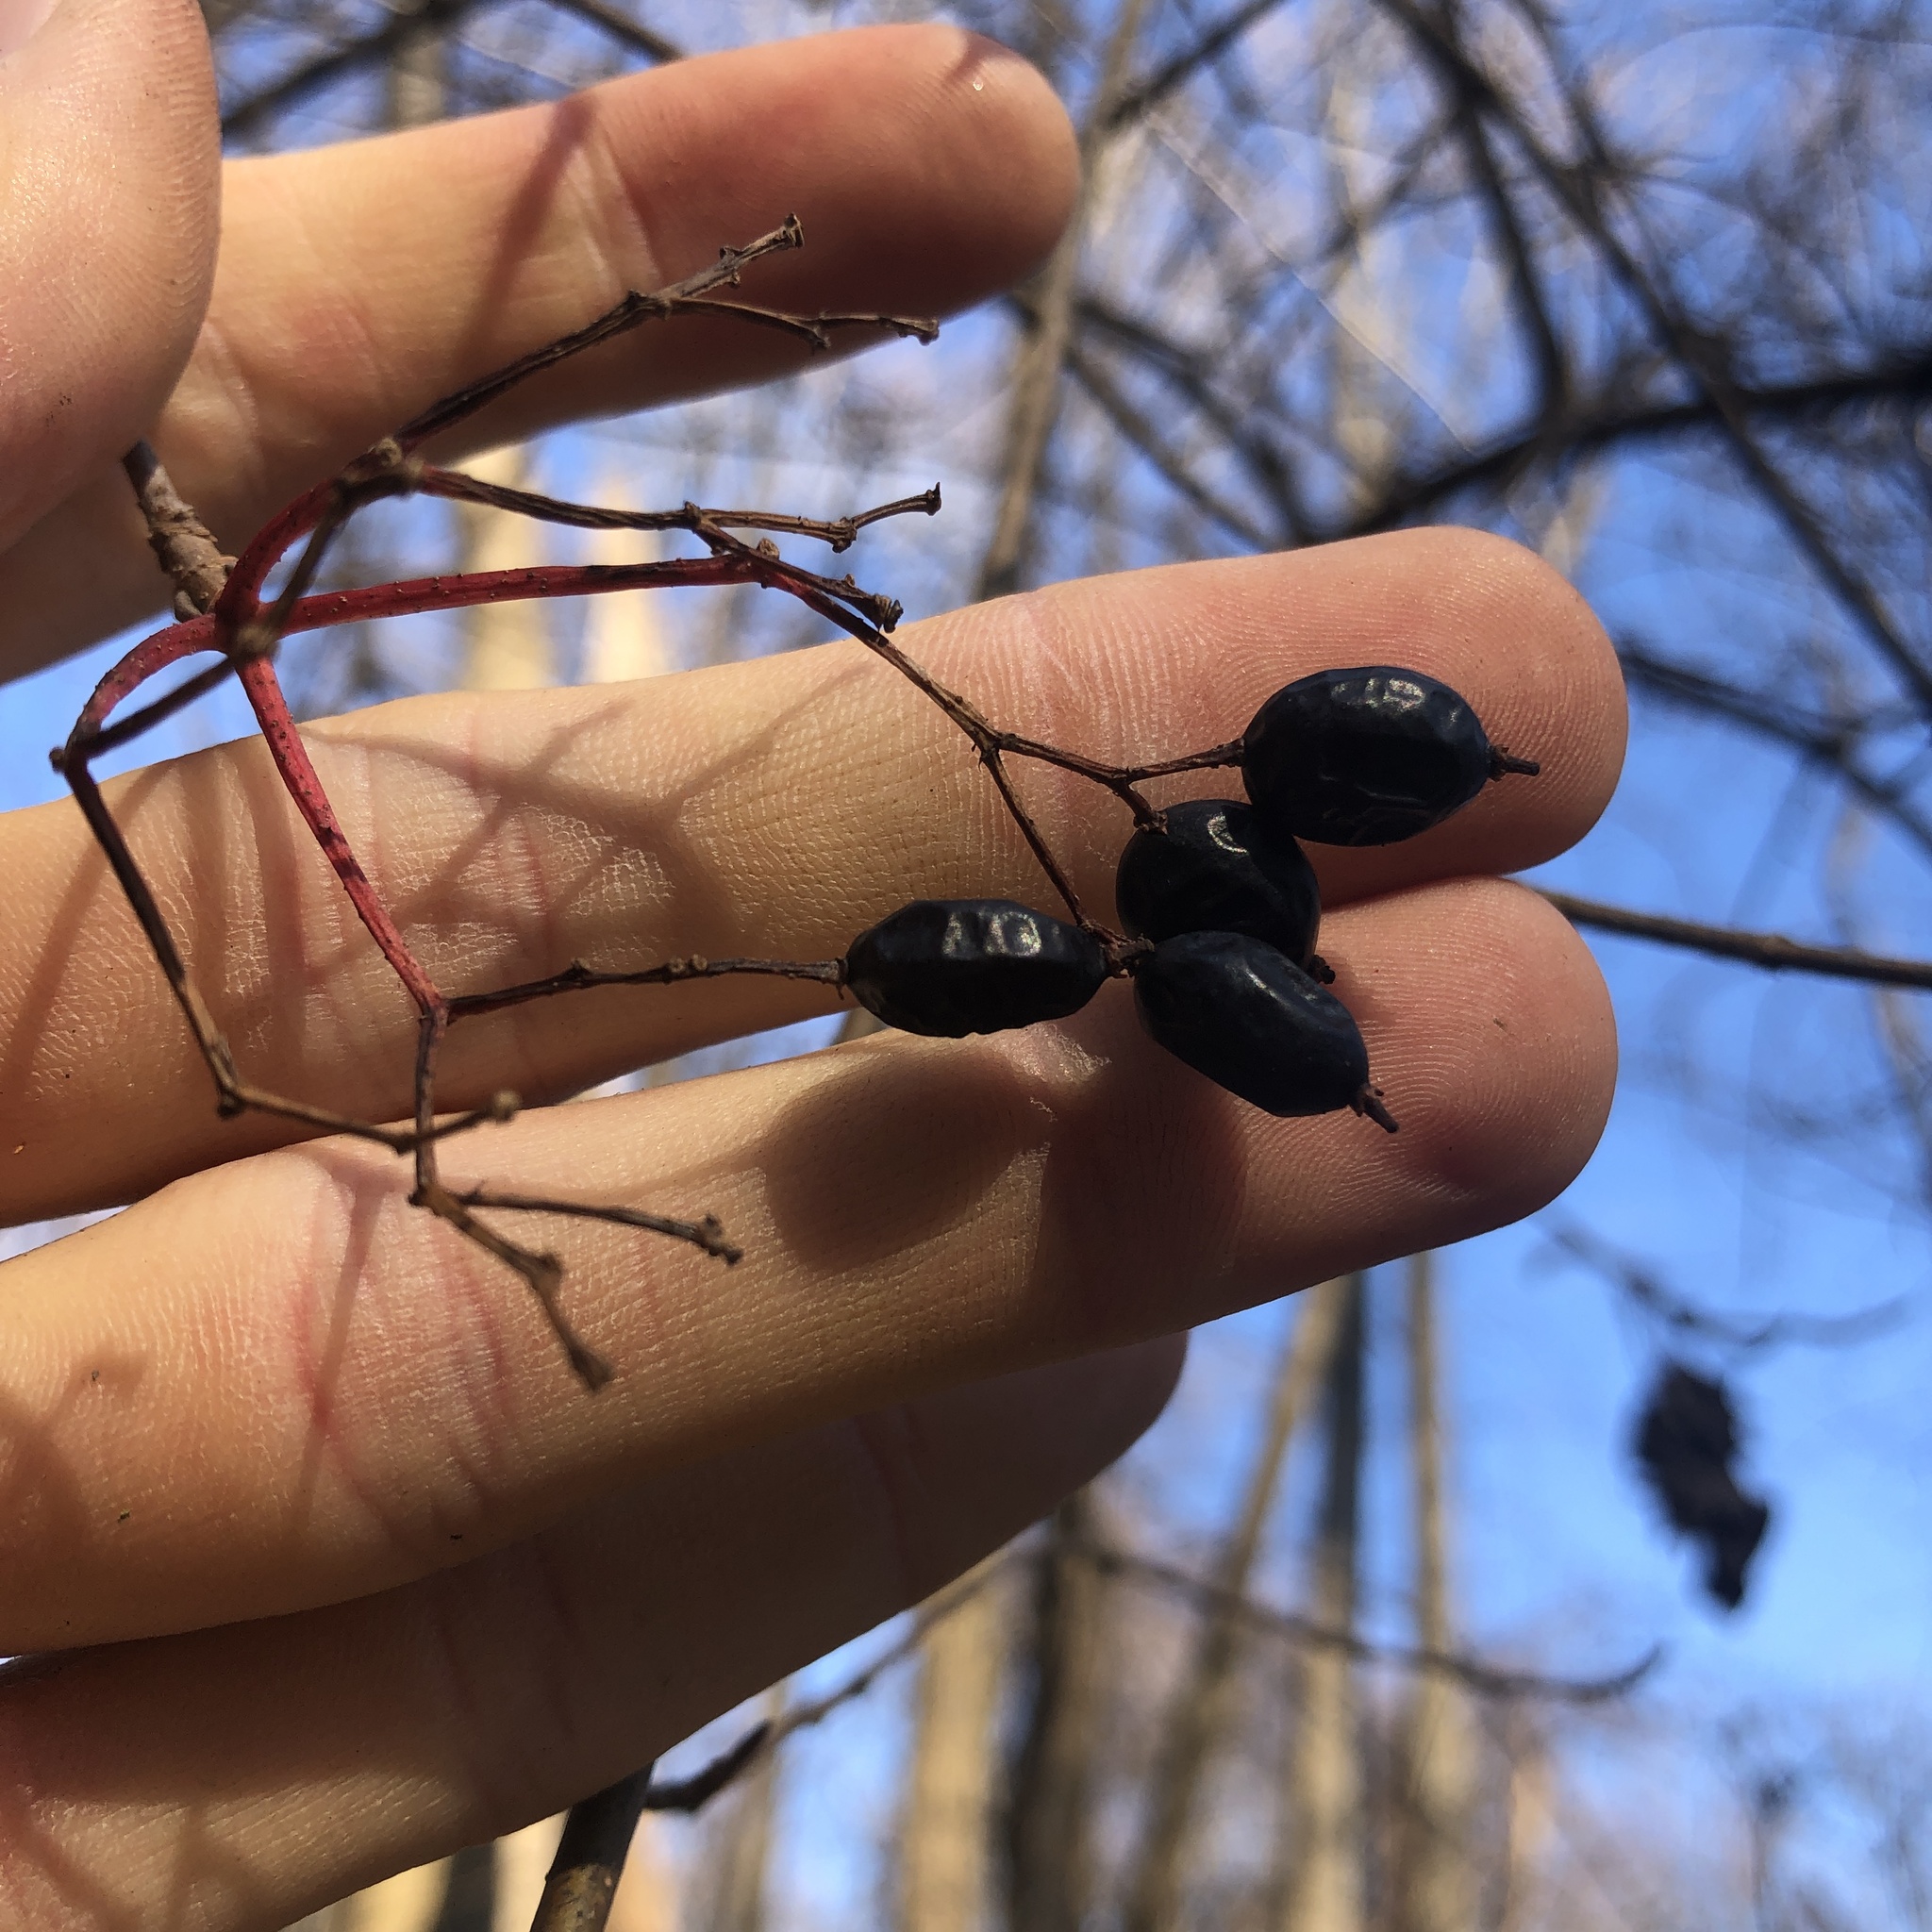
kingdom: Plantae
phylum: Tracheophyta
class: Magnoliopsida
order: Dipsacales
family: Viburnaceae
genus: Viburnum
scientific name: Viburnum prunifolium
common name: Black haw
